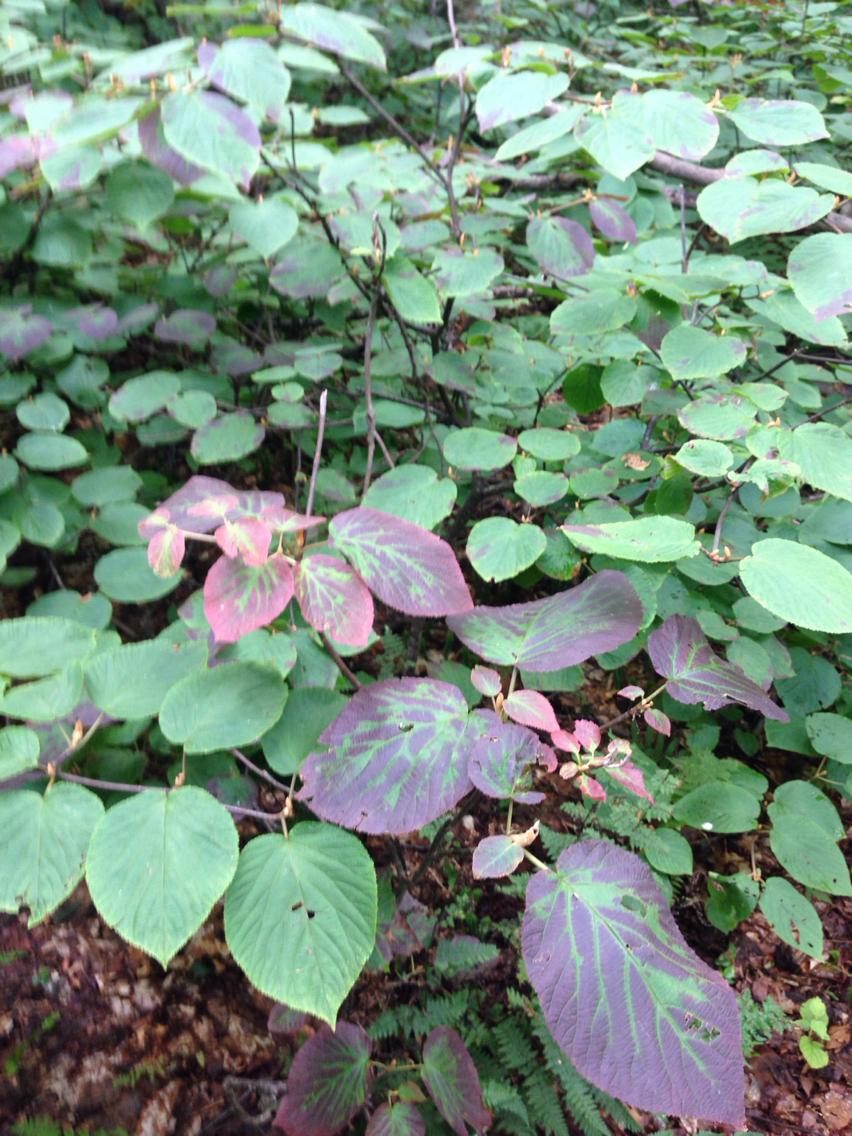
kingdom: Plantae
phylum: Tracheophyta
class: Magnoliopsida
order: Dipsacales
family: Viburnaceae
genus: Viburnum
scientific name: Viburnum lantanoides
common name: Hobblebush
